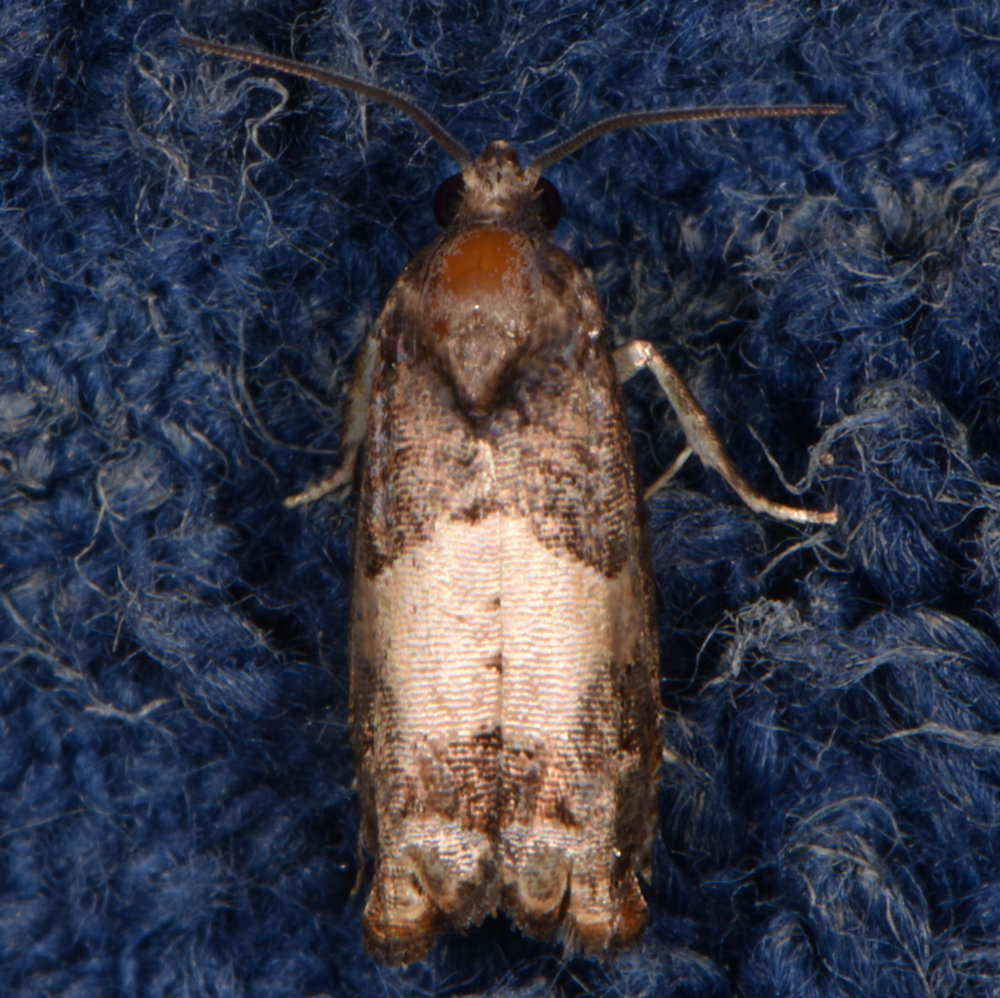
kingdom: Animalia
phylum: Arthropoda
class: Insecta
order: Lepidoptera
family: Tortricidae
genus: Epiblema
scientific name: Epiblema glenni
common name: Glenn's epiblema
